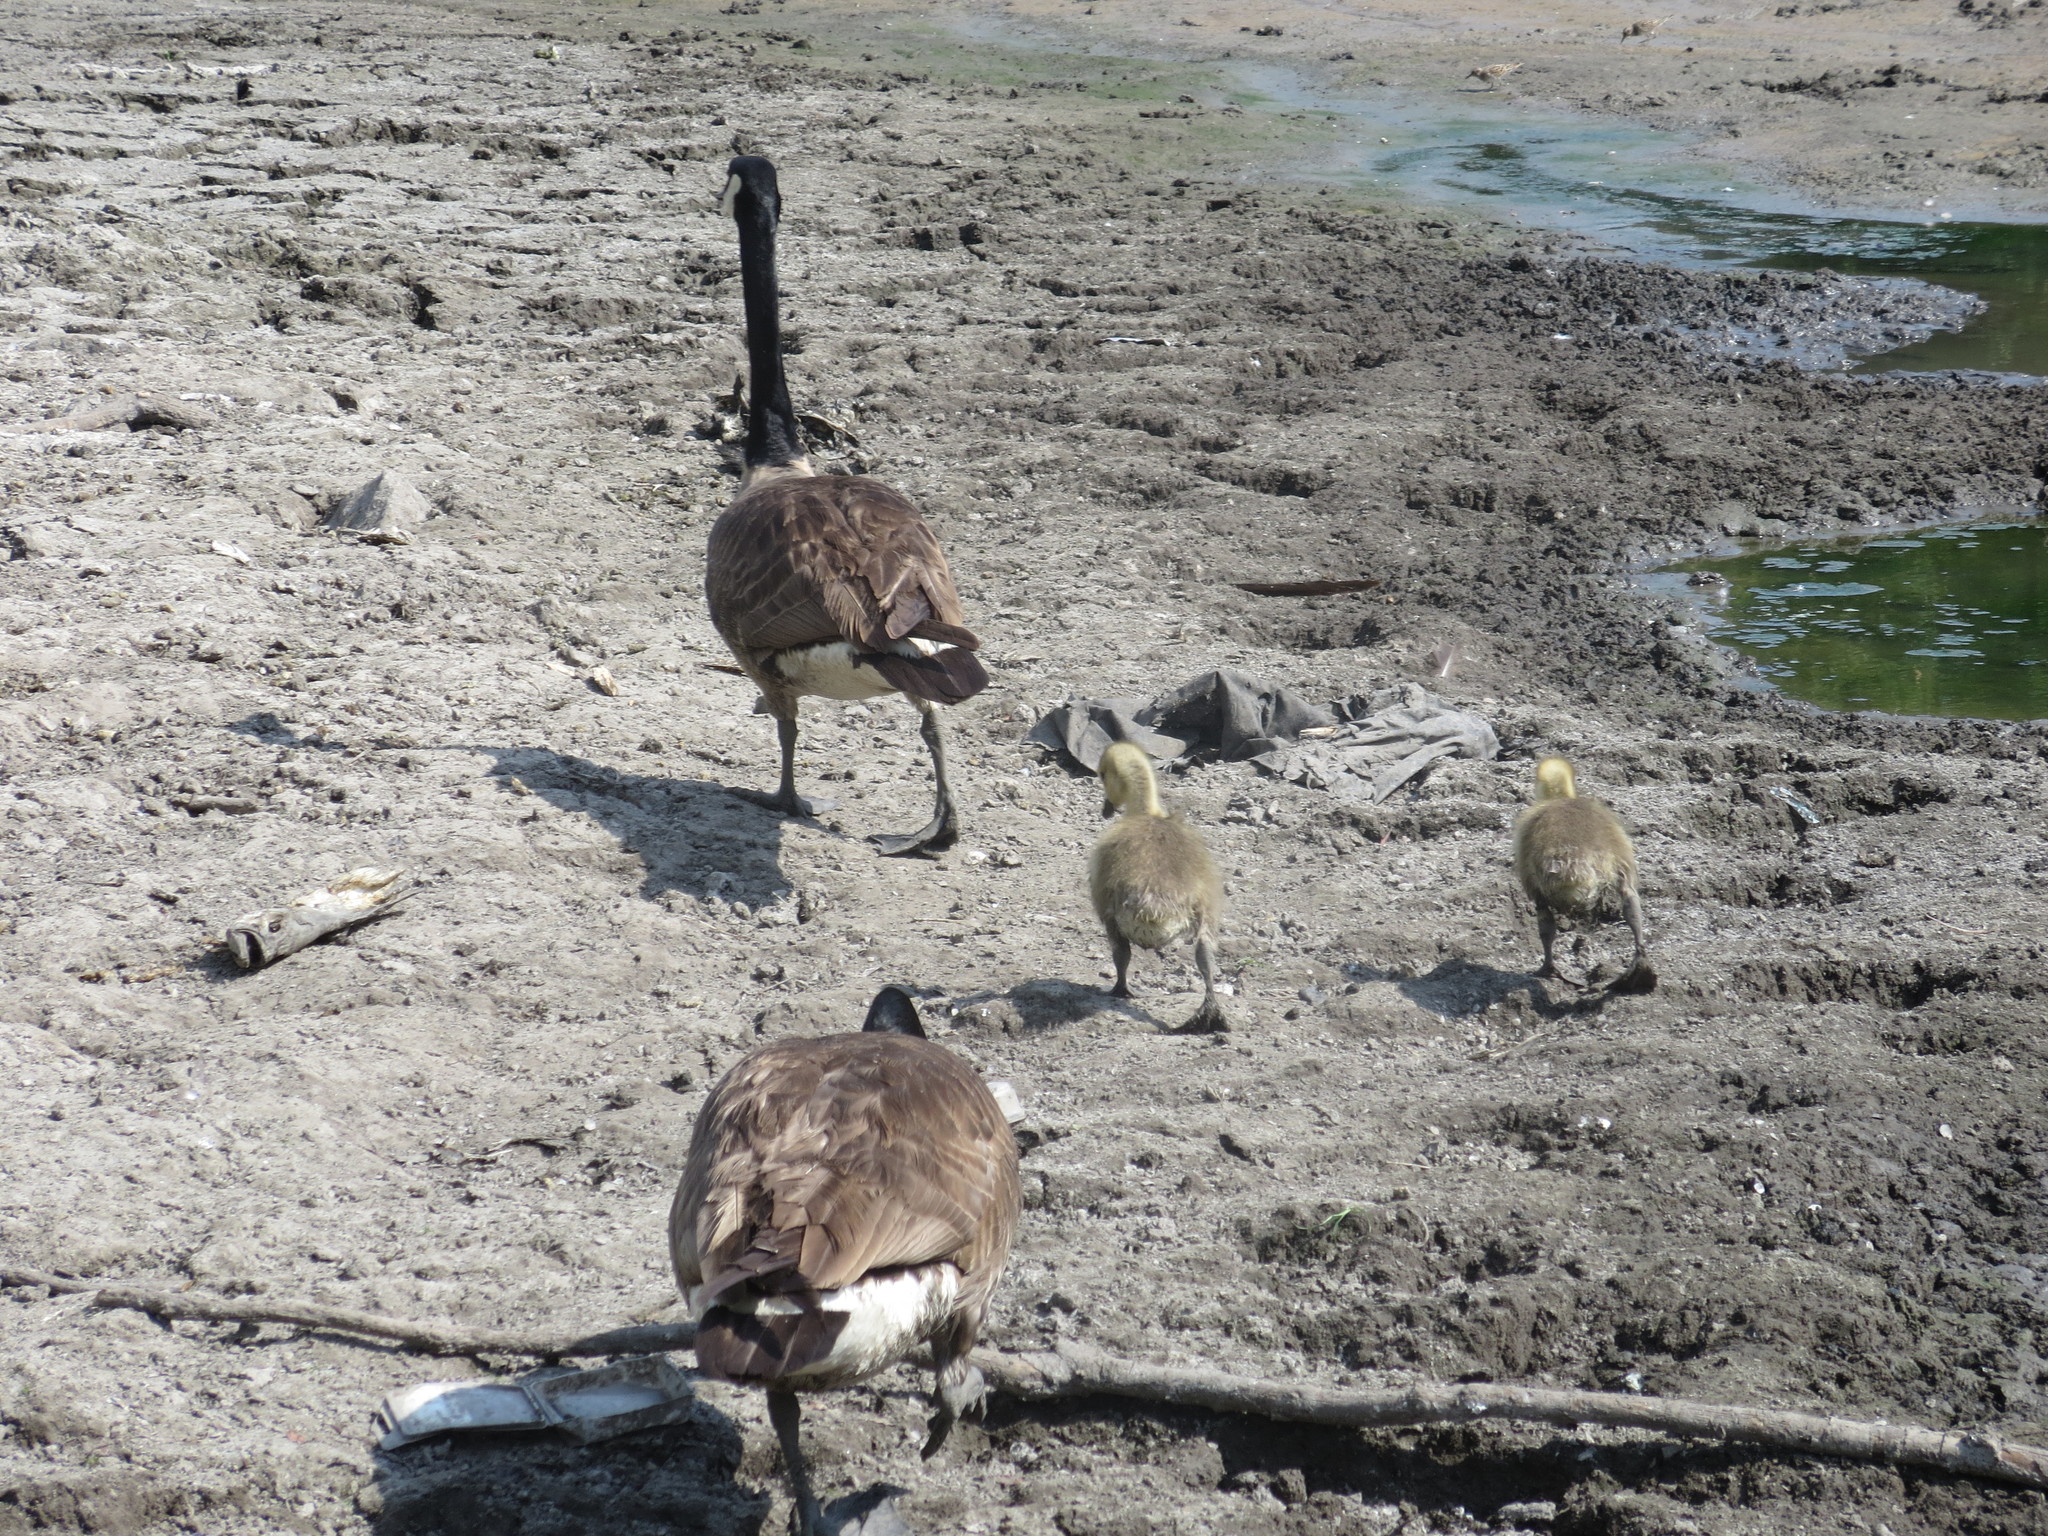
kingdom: Animalia
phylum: Chordata
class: Aves
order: Anseriformes
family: Anatidae
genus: Branta
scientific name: Branta canadensis
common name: Canada goose
